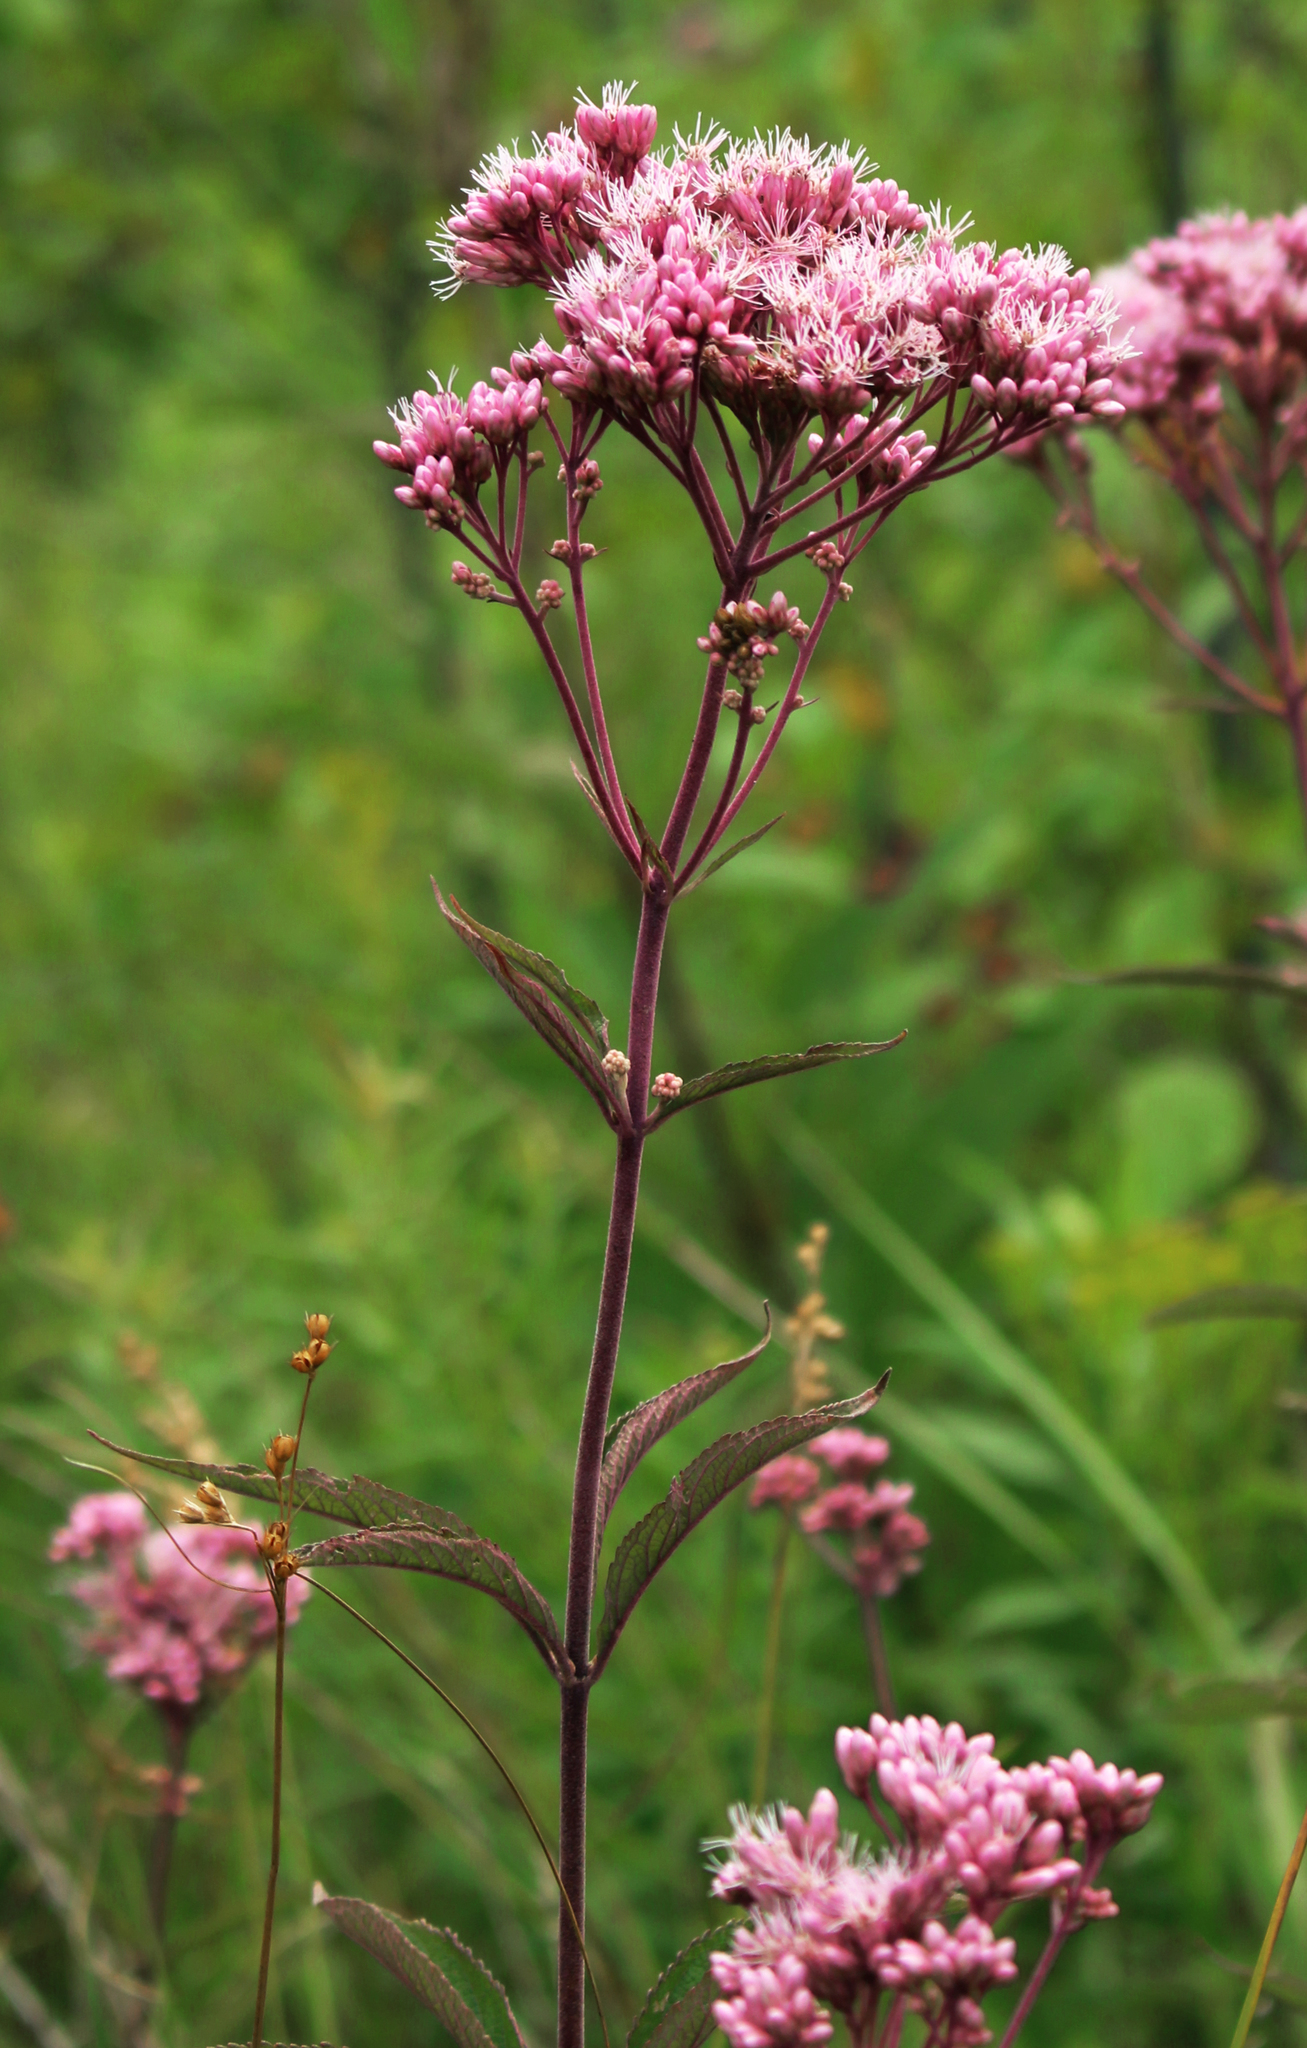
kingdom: Plantae
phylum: Tracheophyta
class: Magnoliopsida
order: Asterales
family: Asteraceae
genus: Eutrochium
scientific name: Eutrochium maculatum
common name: Spotted joe pye weed
